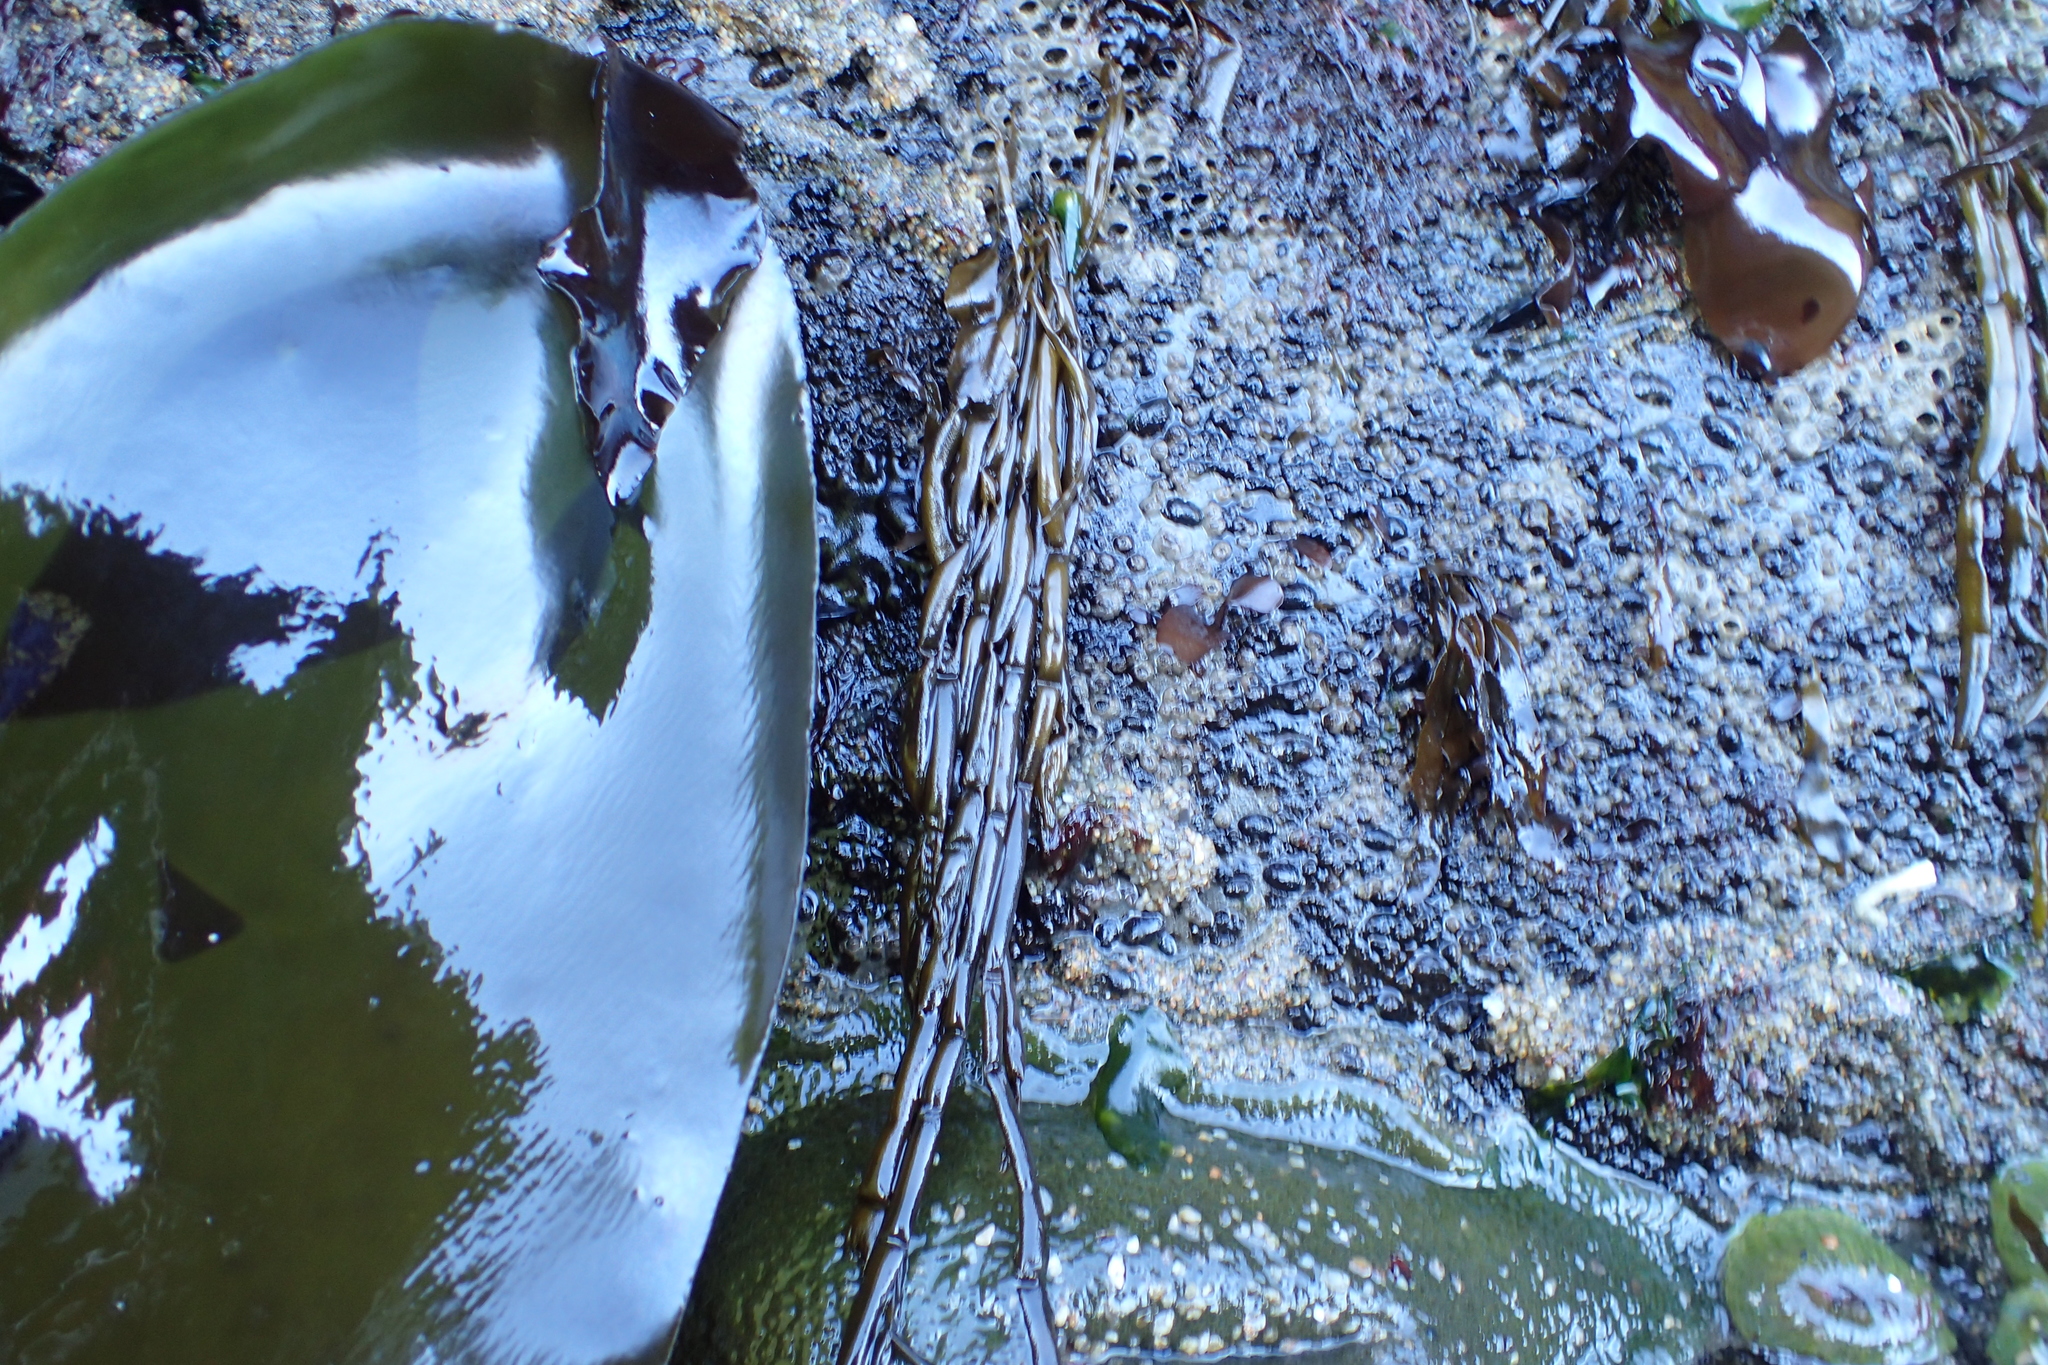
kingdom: Chromista
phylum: Ochrophyta
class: Phaeophyceae
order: Scytosiphonales
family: Scytosiphonaceae
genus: Scytosiphon
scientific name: Scytosiphon lomentaria
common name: Beanweed
